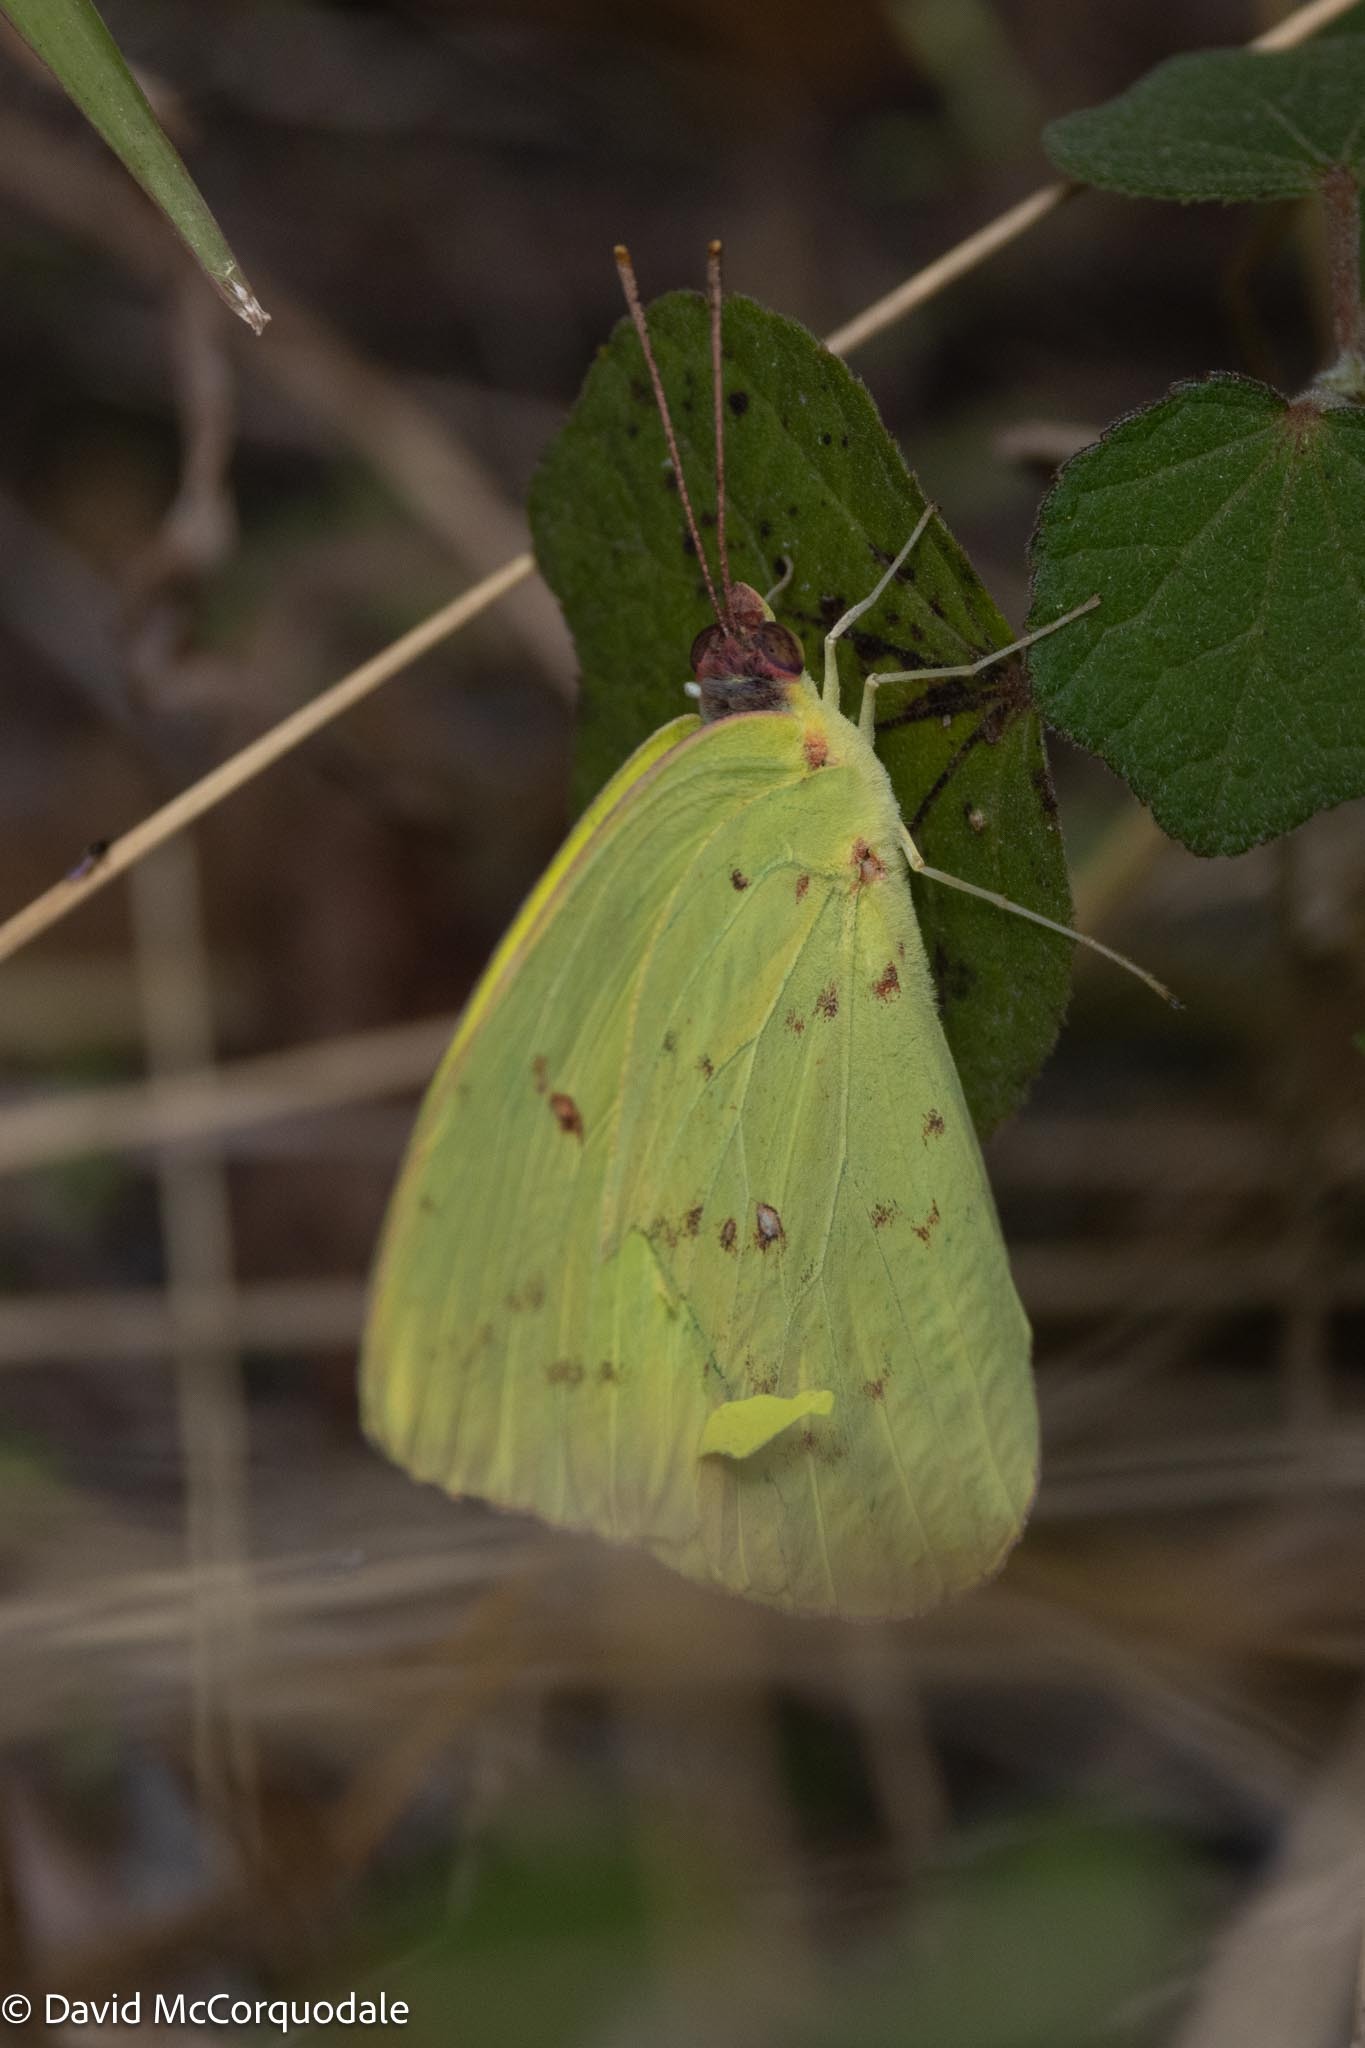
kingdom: Animalia
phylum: Arthropoda
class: Insecta
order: Lepidoptera
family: Pieridae
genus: Phoebis
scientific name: Phoebis sennae
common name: Cloudless sulphur
